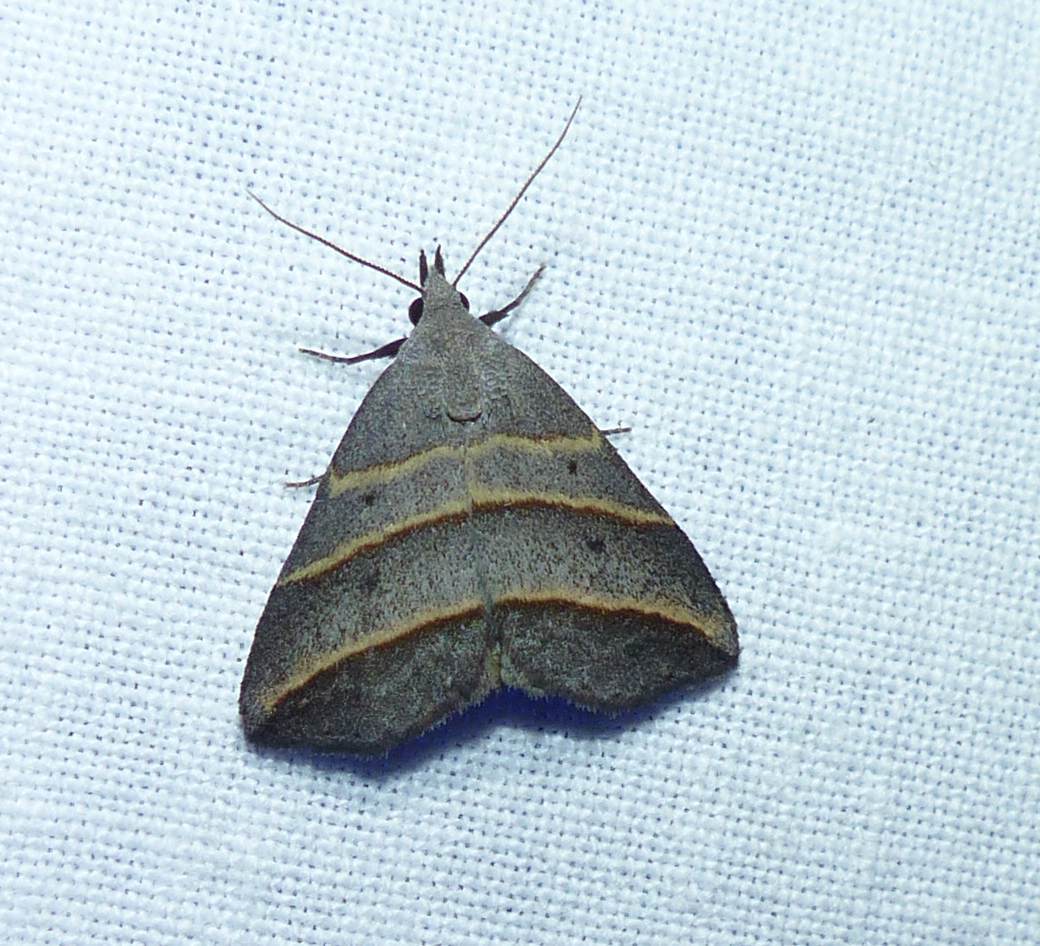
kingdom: Animalia
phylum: Arthropoda
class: Insecta
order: Lepidoptera
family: Erebidae
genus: Colobochyla
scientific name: Colobochyla interpuncta
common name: Yellow-lined owlet
